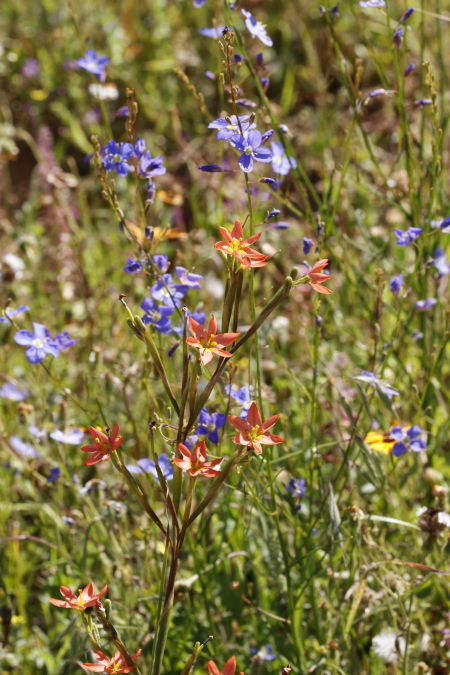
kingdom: Plantae
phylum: Tracheophyta
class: Liliopsida
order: Asparagales
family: Iridaceae
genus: Moraea
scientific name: Moraea miniata
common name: Two-leaf cape-tulip
